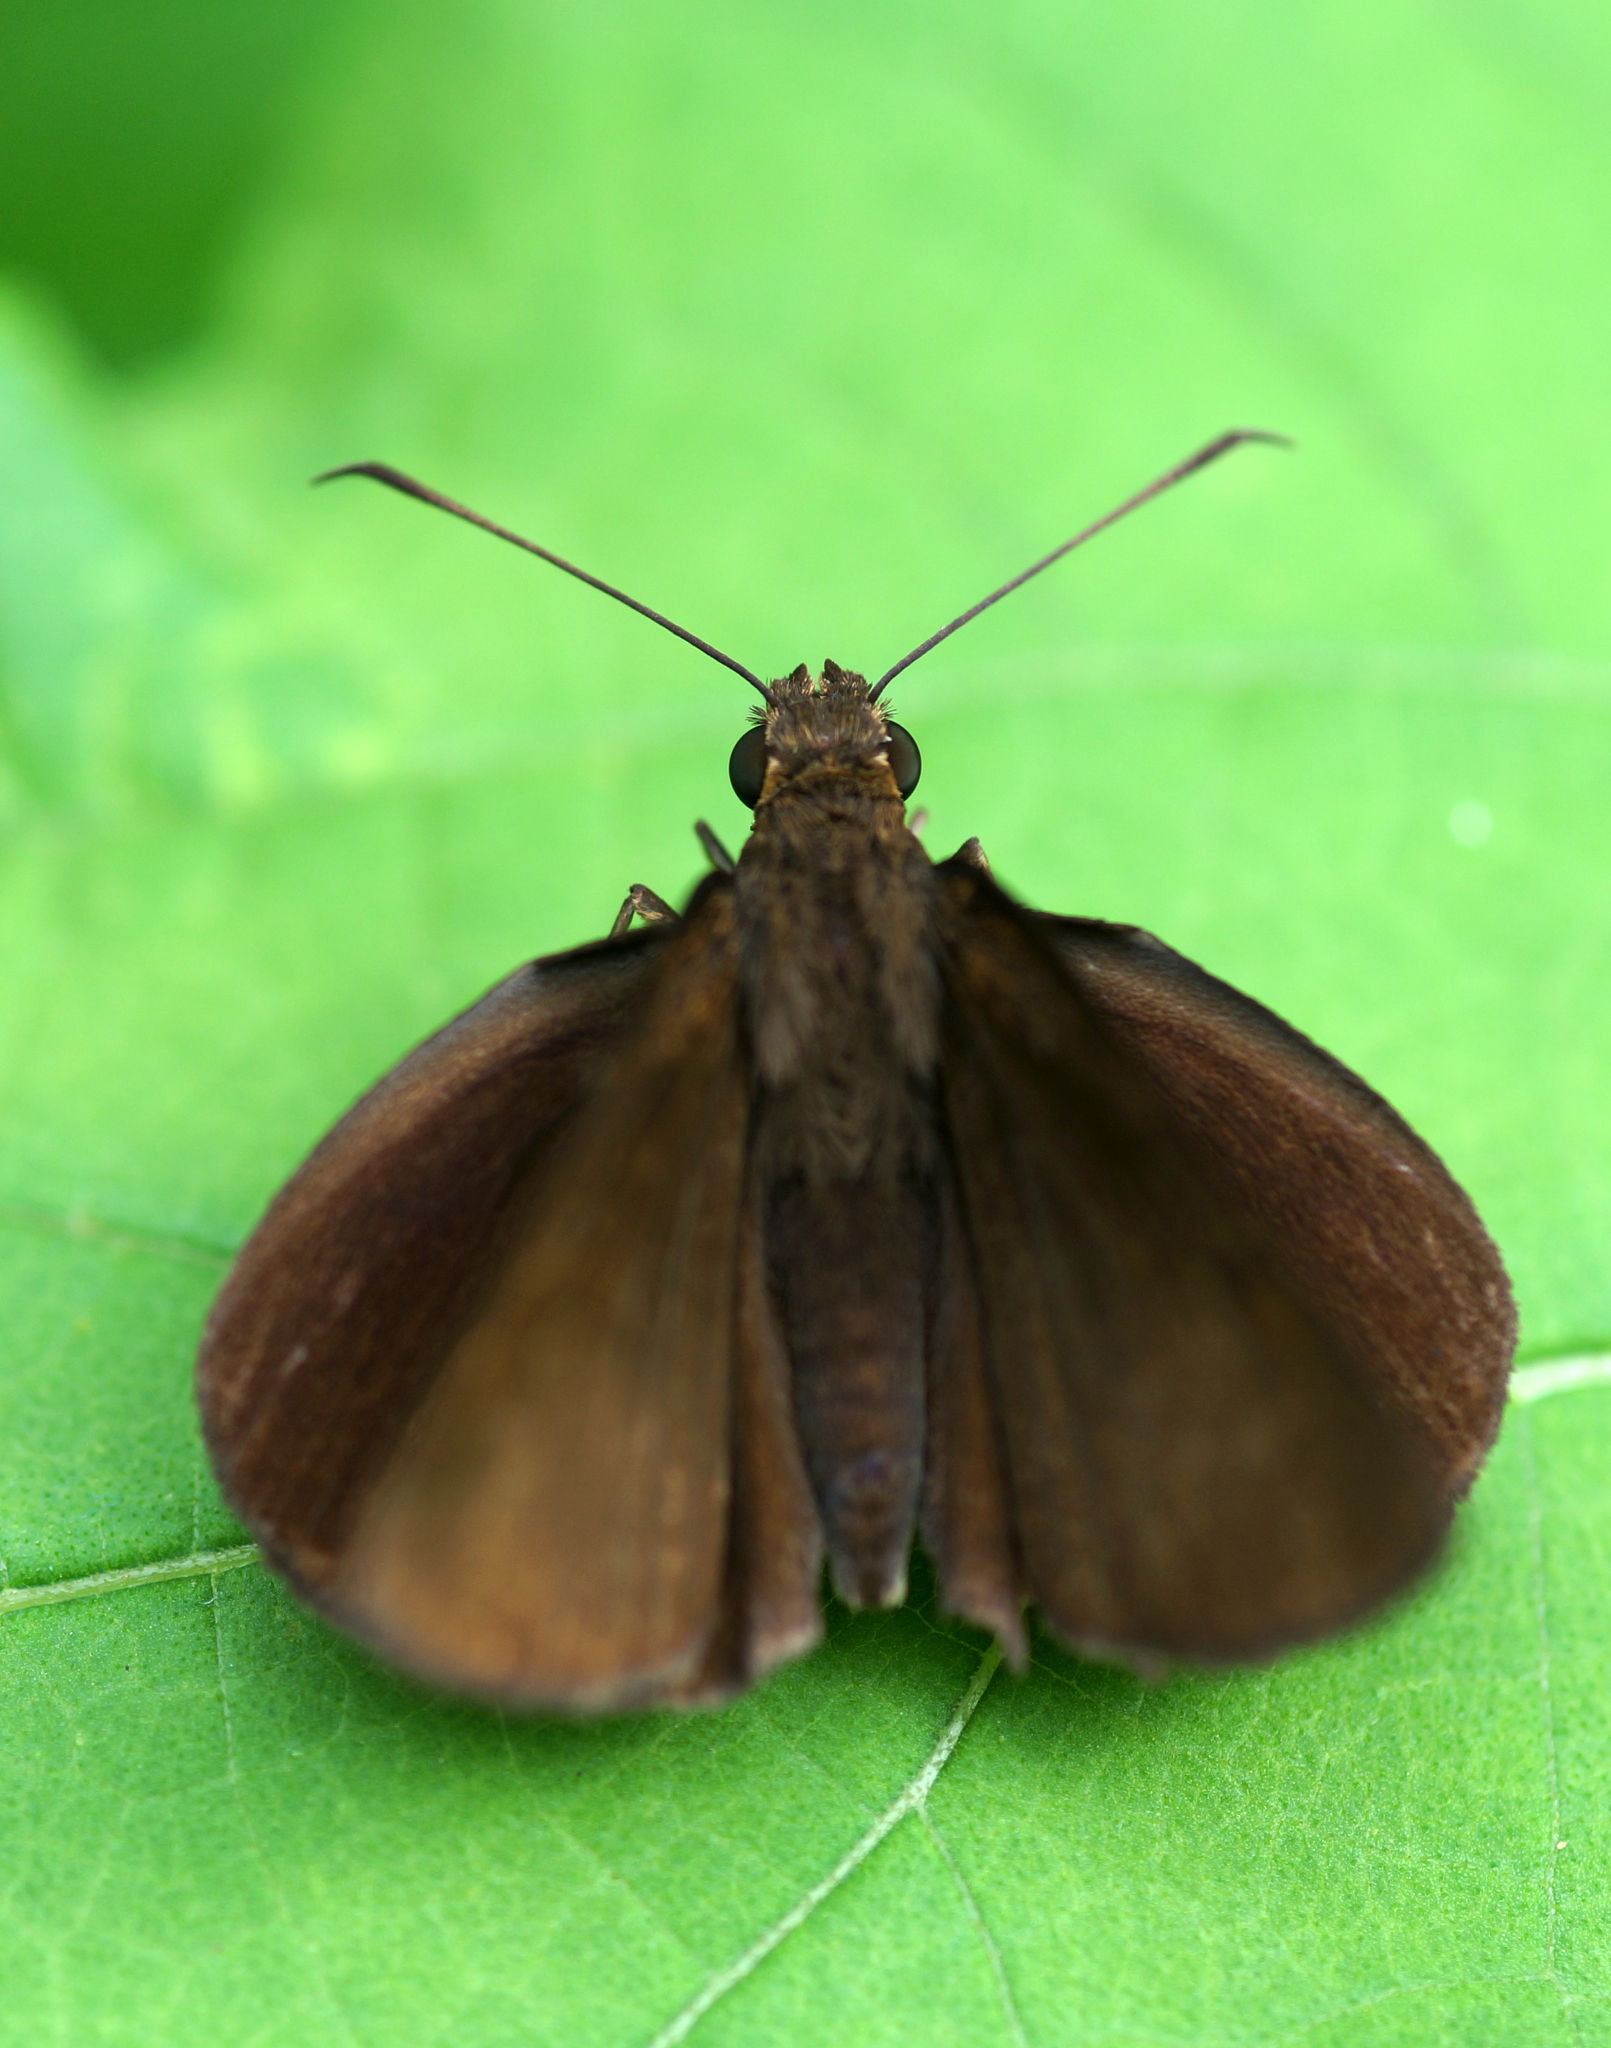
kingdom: Animalia
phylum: Arthropoda
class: Insecta
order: Lepidoptera
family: Hesperiidae
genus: Ancistroides
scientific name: Ancistroides nigrita
